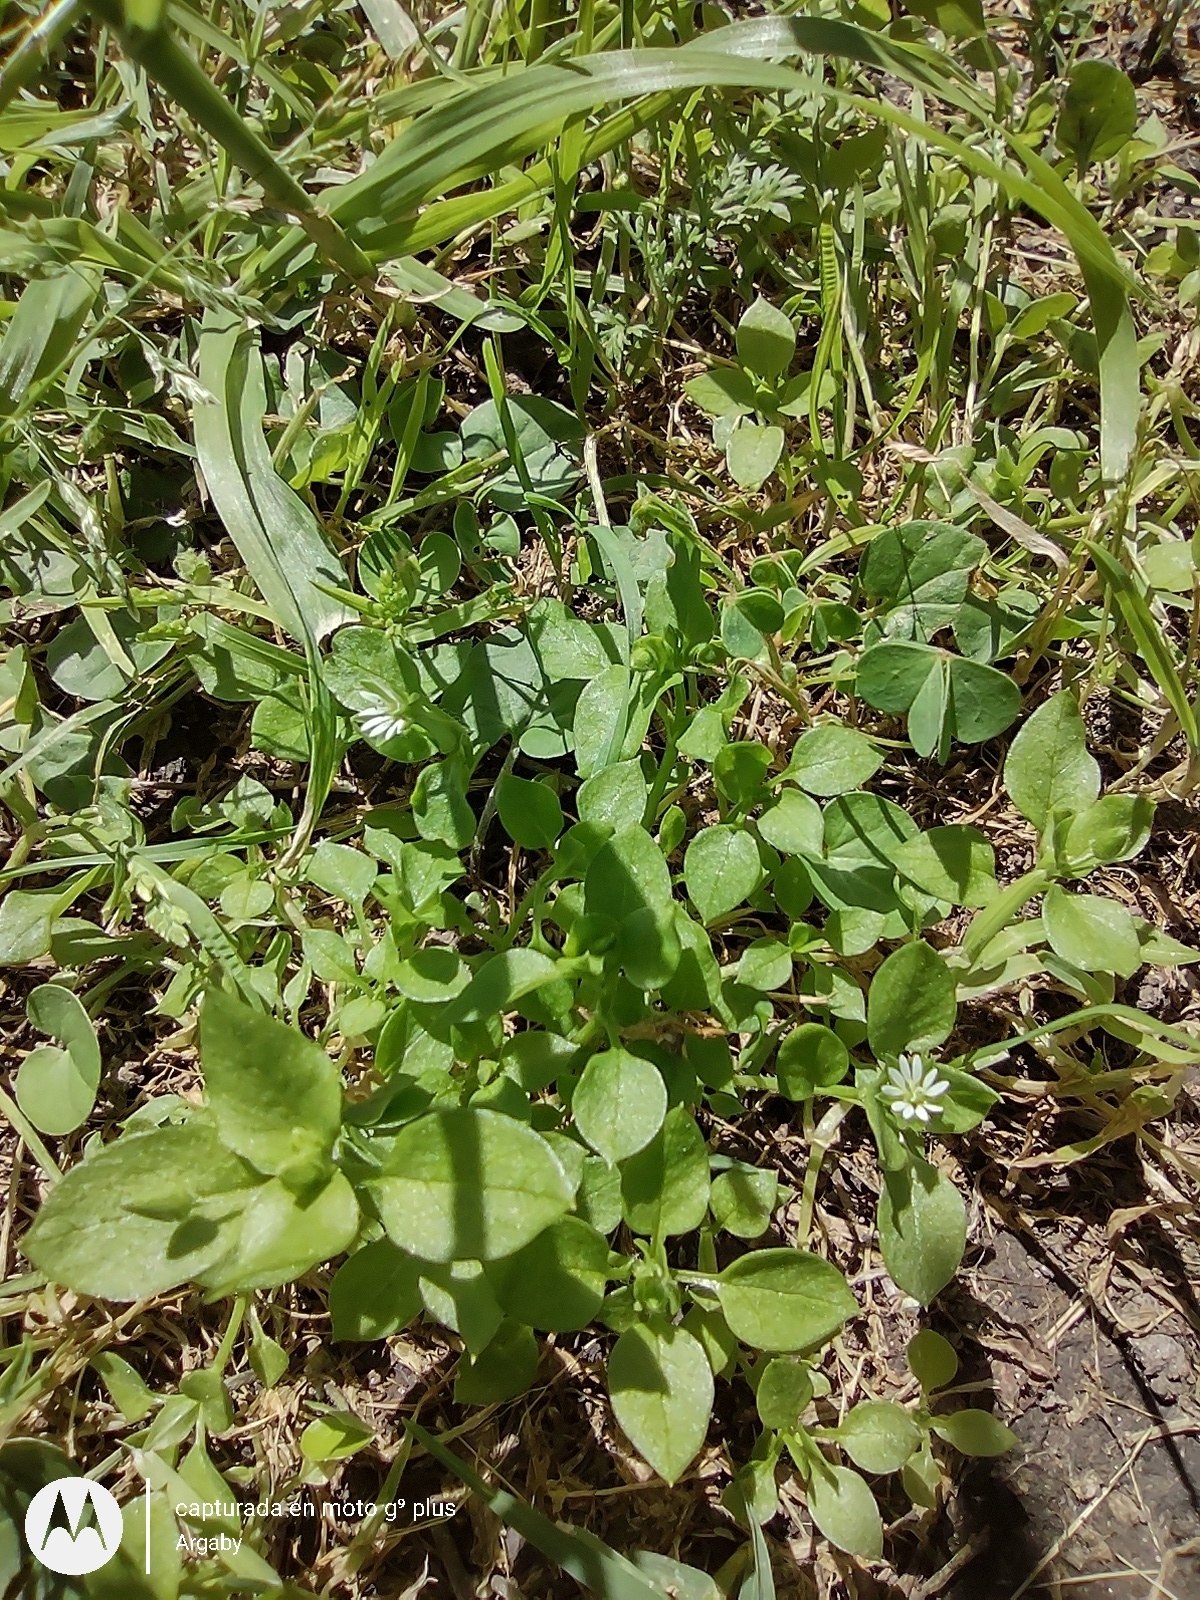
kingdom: Plantae
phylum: Tracheophyta
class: Magnoliopsida
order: Caryophyllales
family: Caryophyllaceae
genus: Stellaria
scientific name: Stellaria media
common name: Common chickweed
